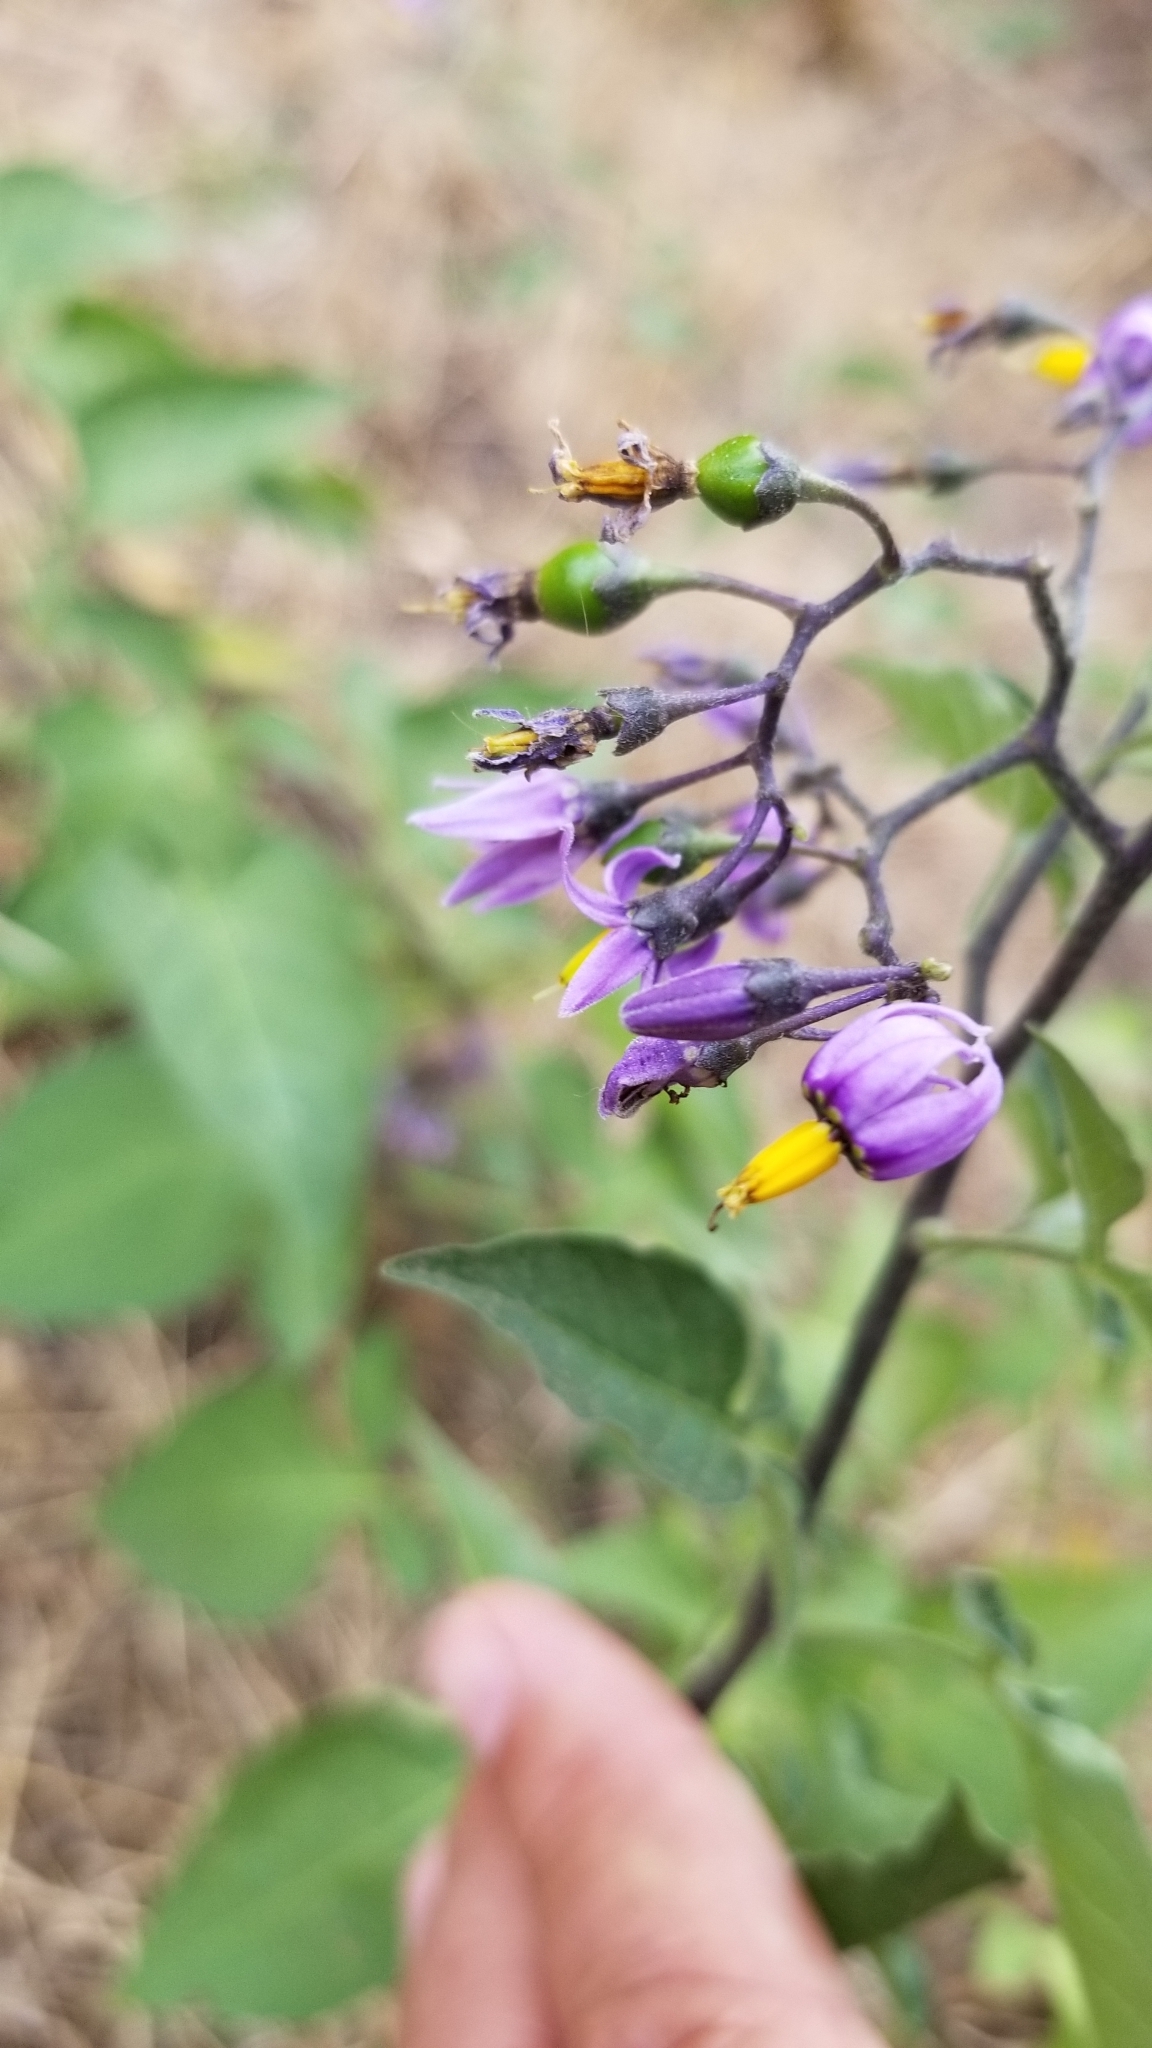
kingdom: Plantae
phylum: Tracheophyta
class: Magnoliopsida
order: Solanales
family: Solanaceae
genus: Solanum
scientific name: Solanum dulcamara
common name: Climbing nightshade
